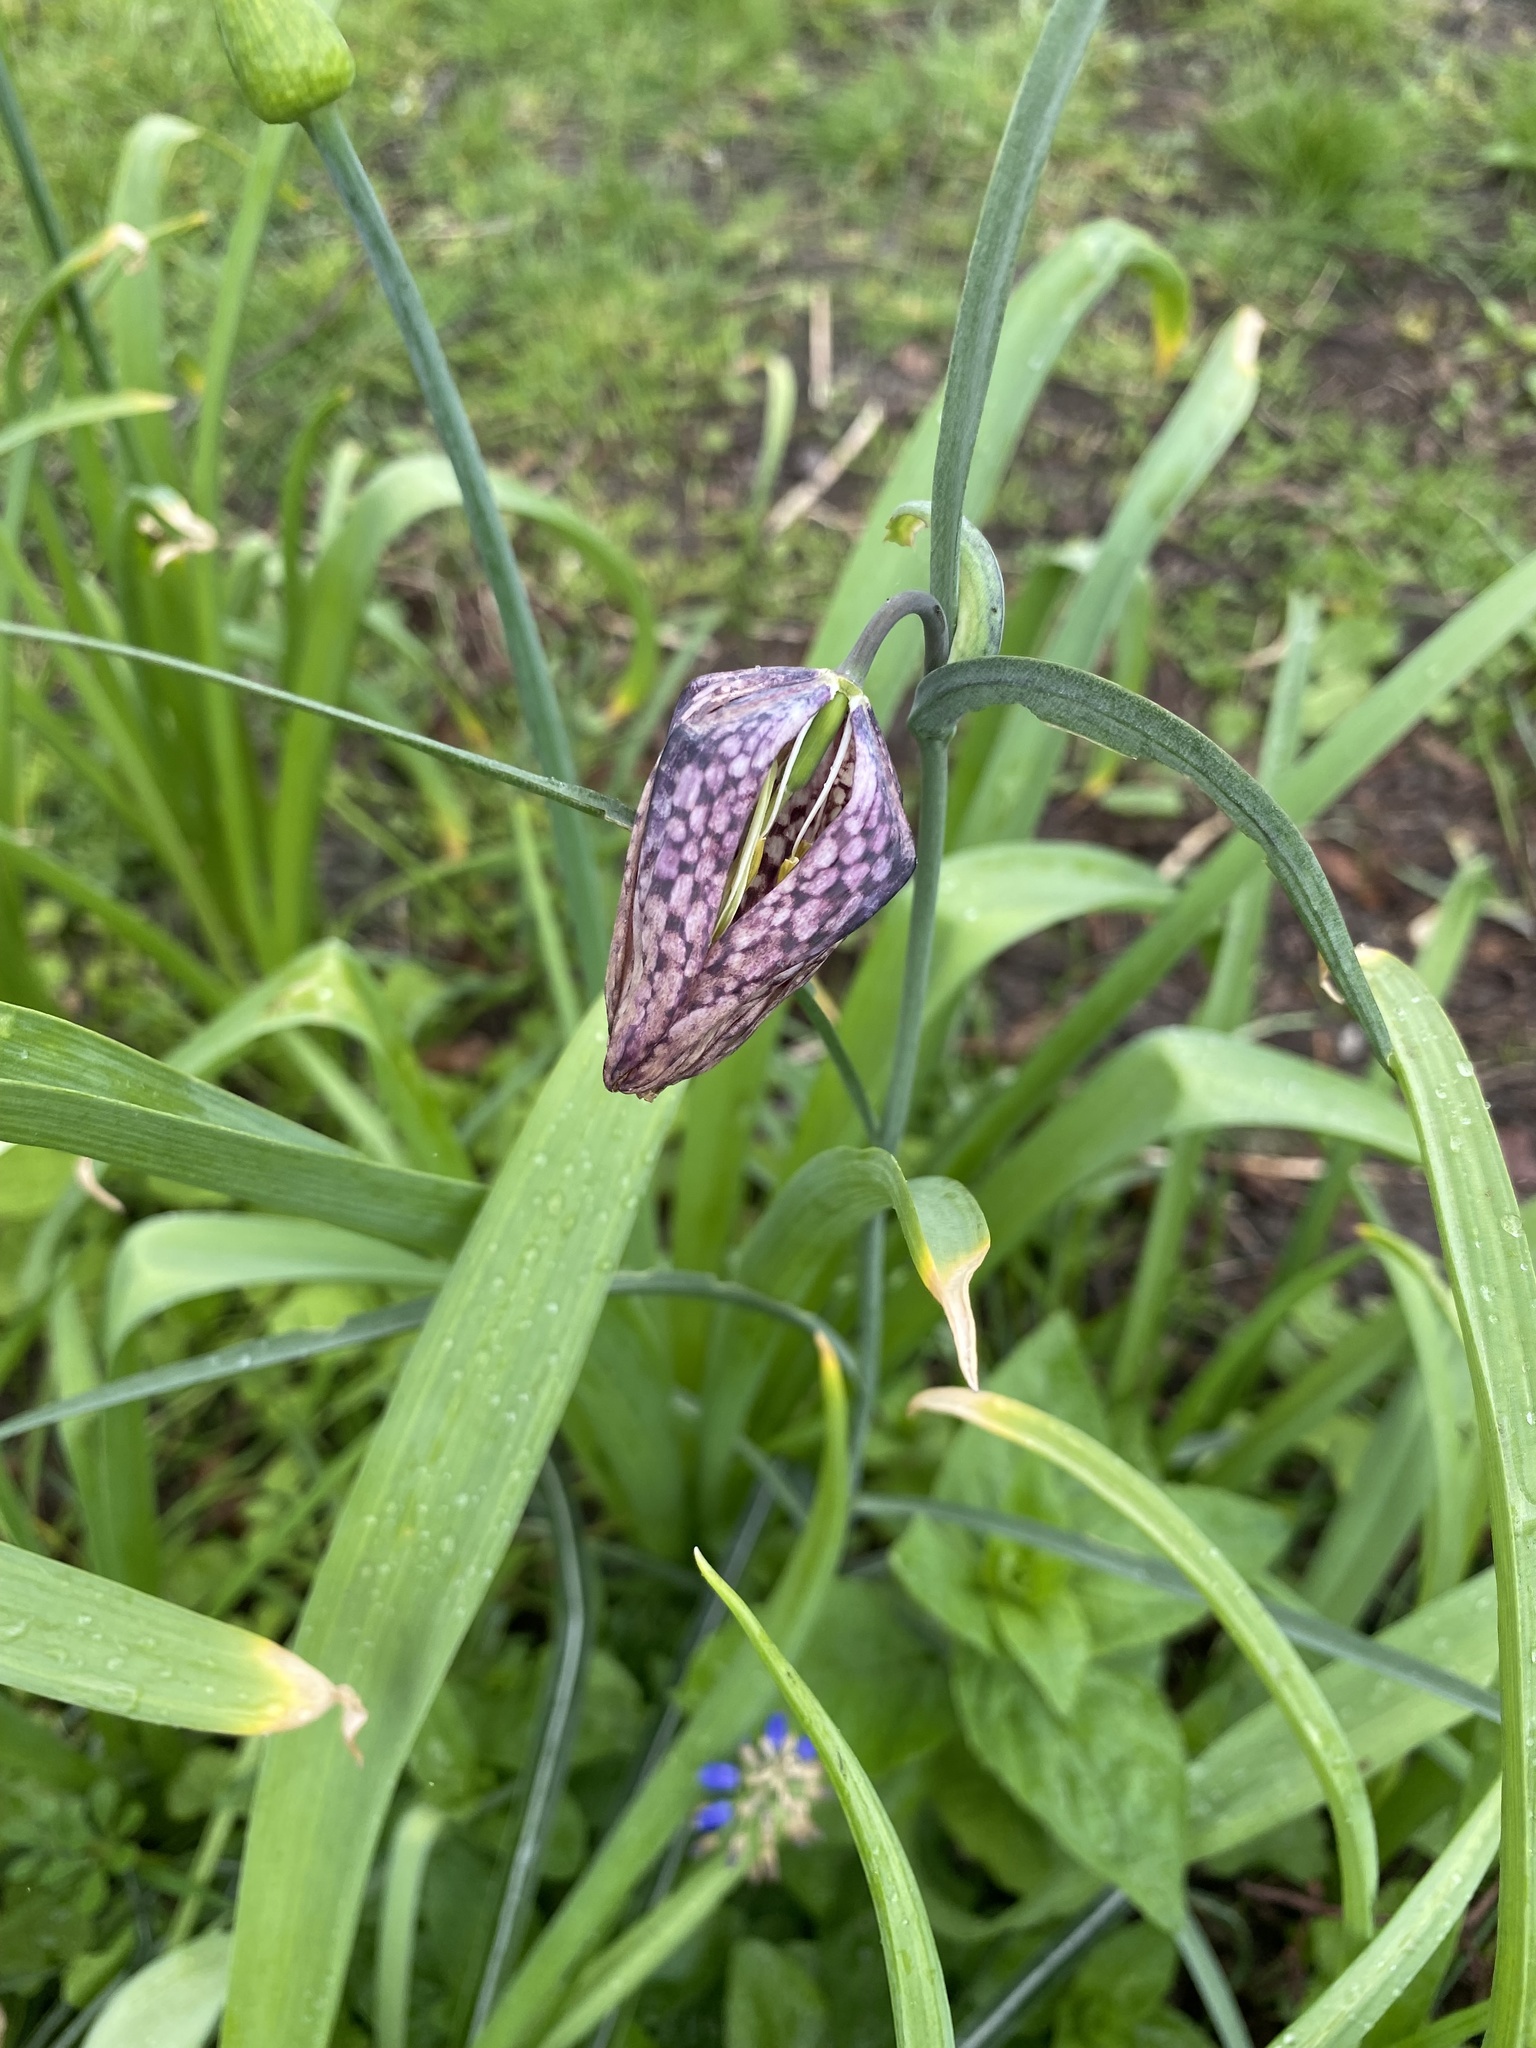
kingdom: Plantae
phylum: Tracheophyta
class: Liliopsida
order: Liliales
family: Liliaceae
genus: Fritillaria
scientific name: Fritillaria meleagris
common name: Fritillary
